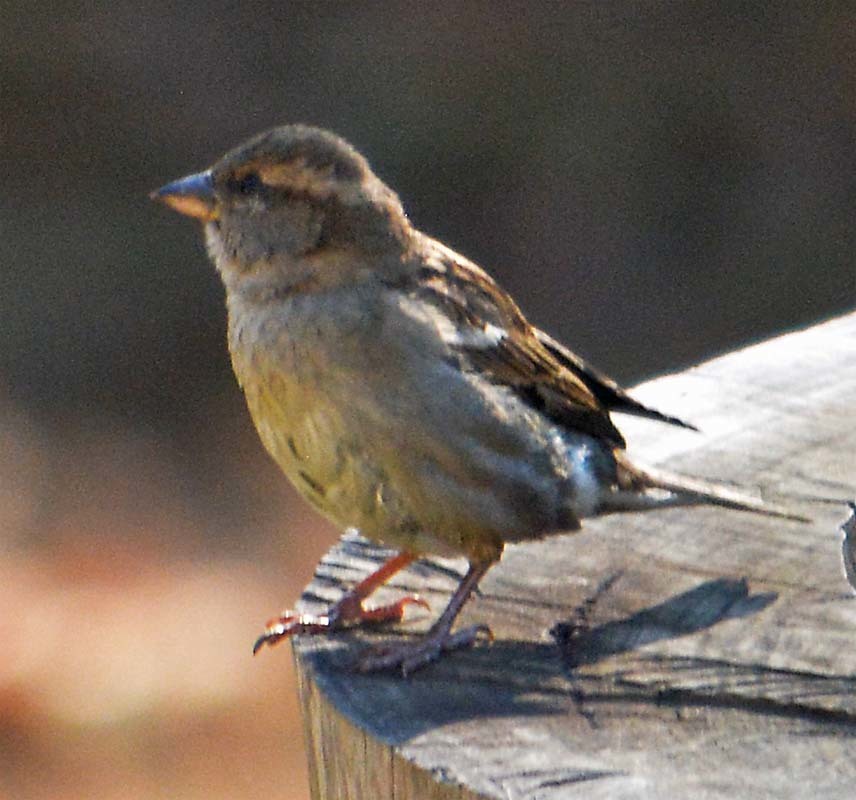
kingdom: Animalia
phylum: Chordata
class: Aves
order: Passeriformes
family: Passeridae
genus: Passer
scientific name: Passer domesticus
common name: House sparrow
